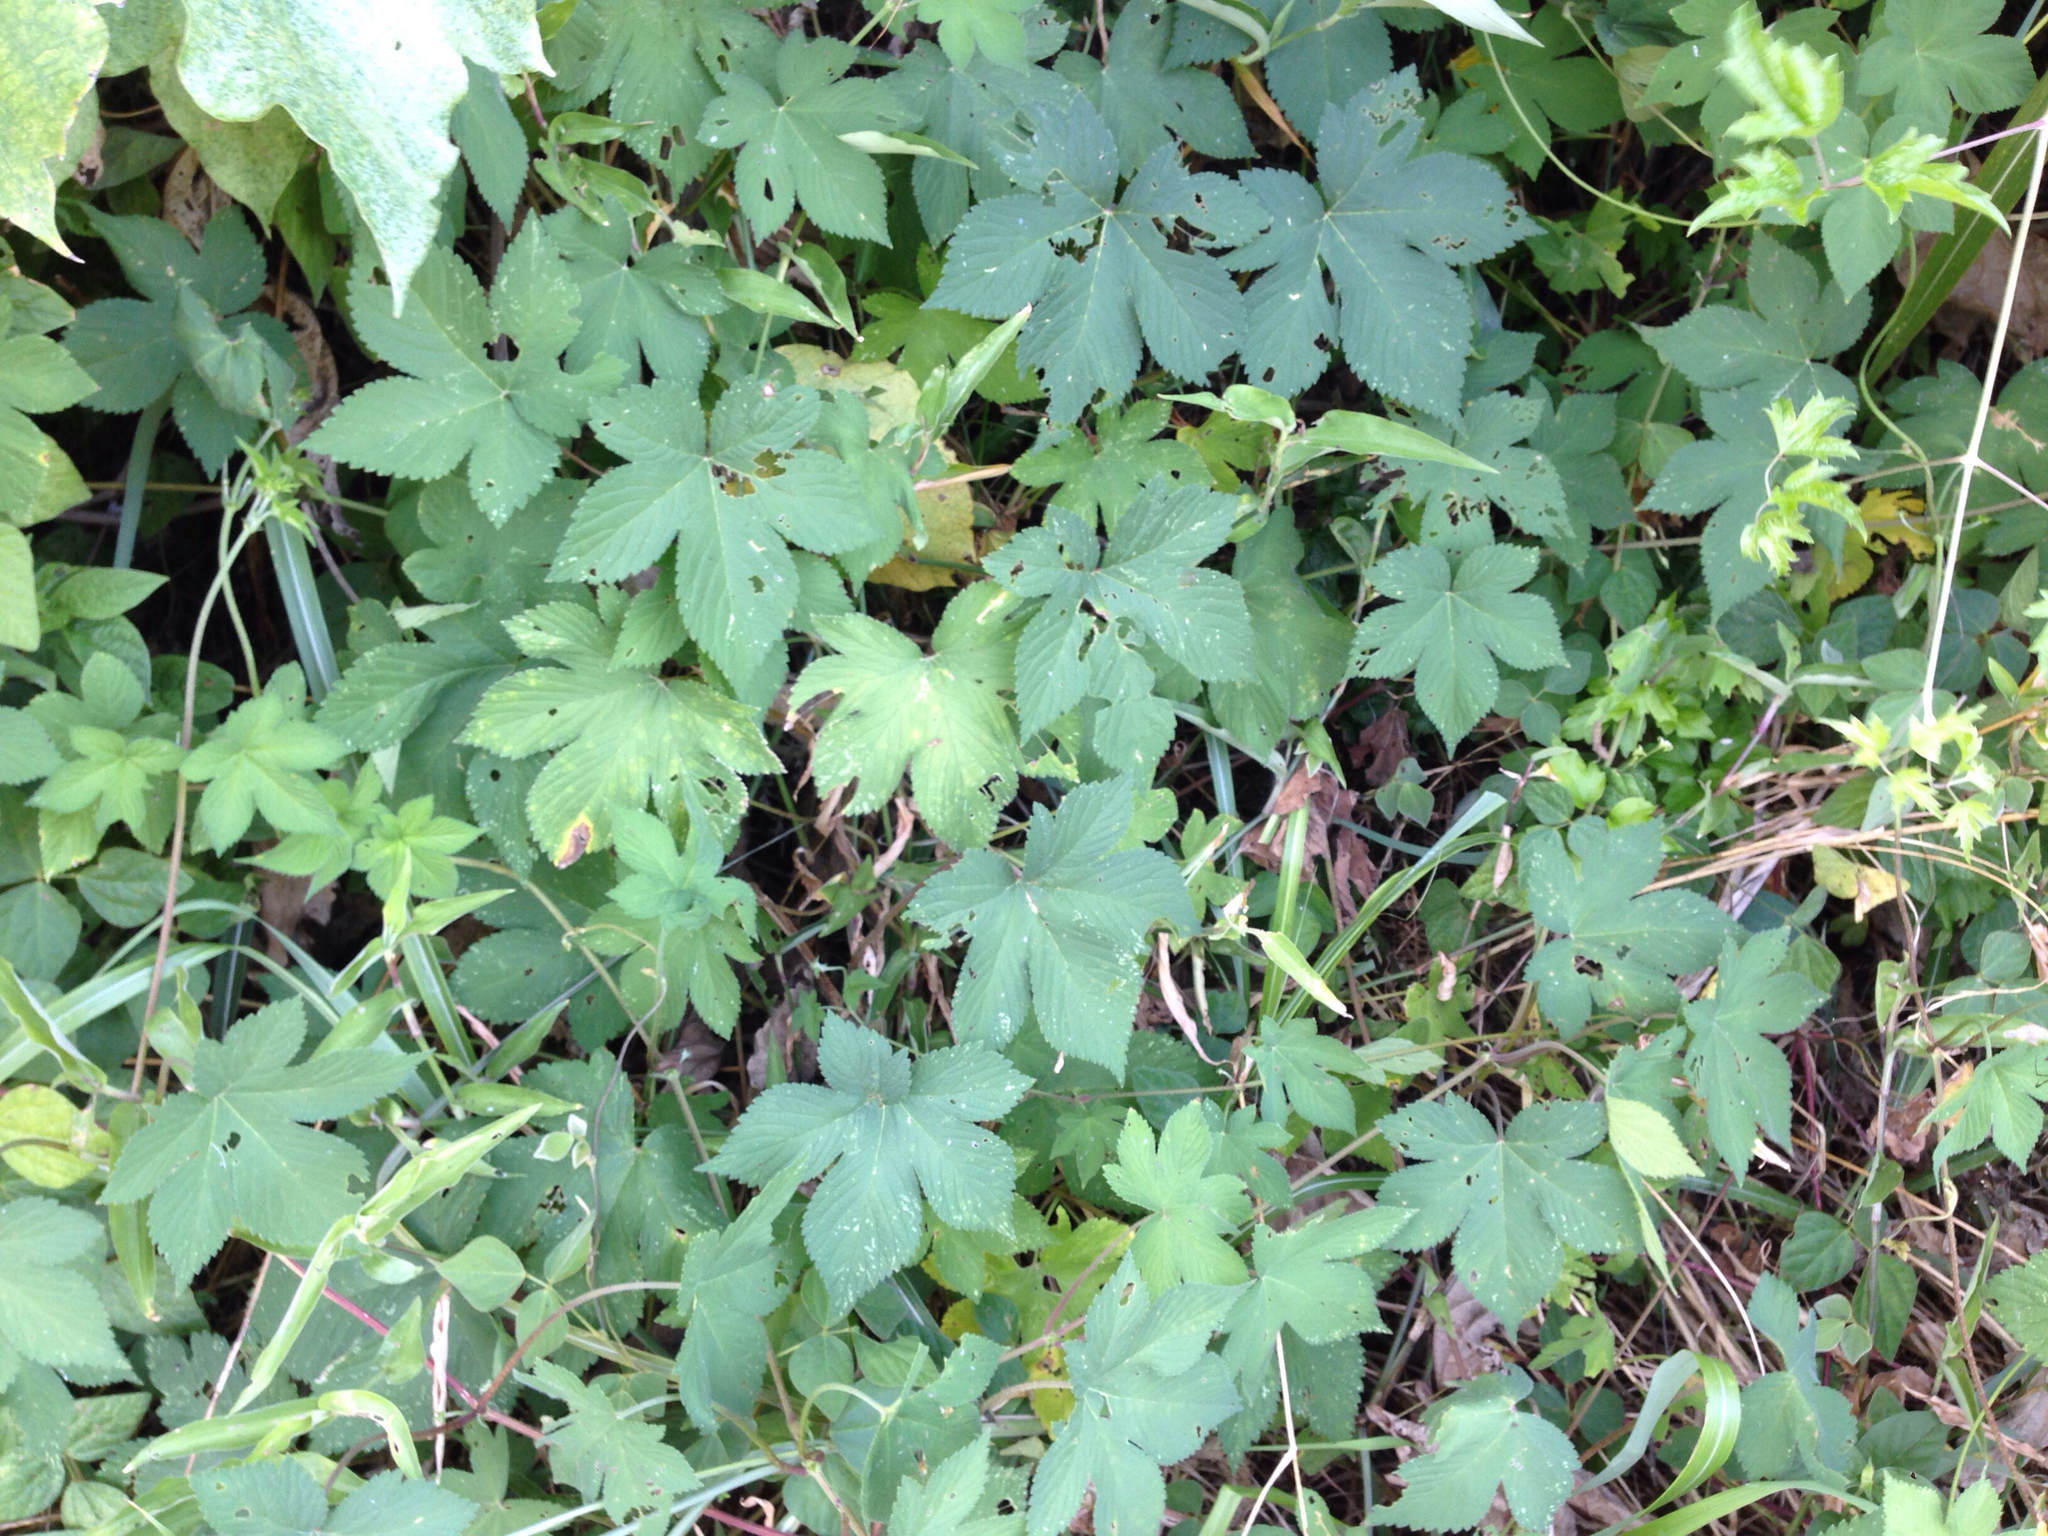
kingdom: Plantae
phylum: Tracheophyta
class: Magnoliopsida
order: Rosales
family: Cannabaceae
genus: Humulus
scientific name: Humulus scandens
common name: Japanese hop
